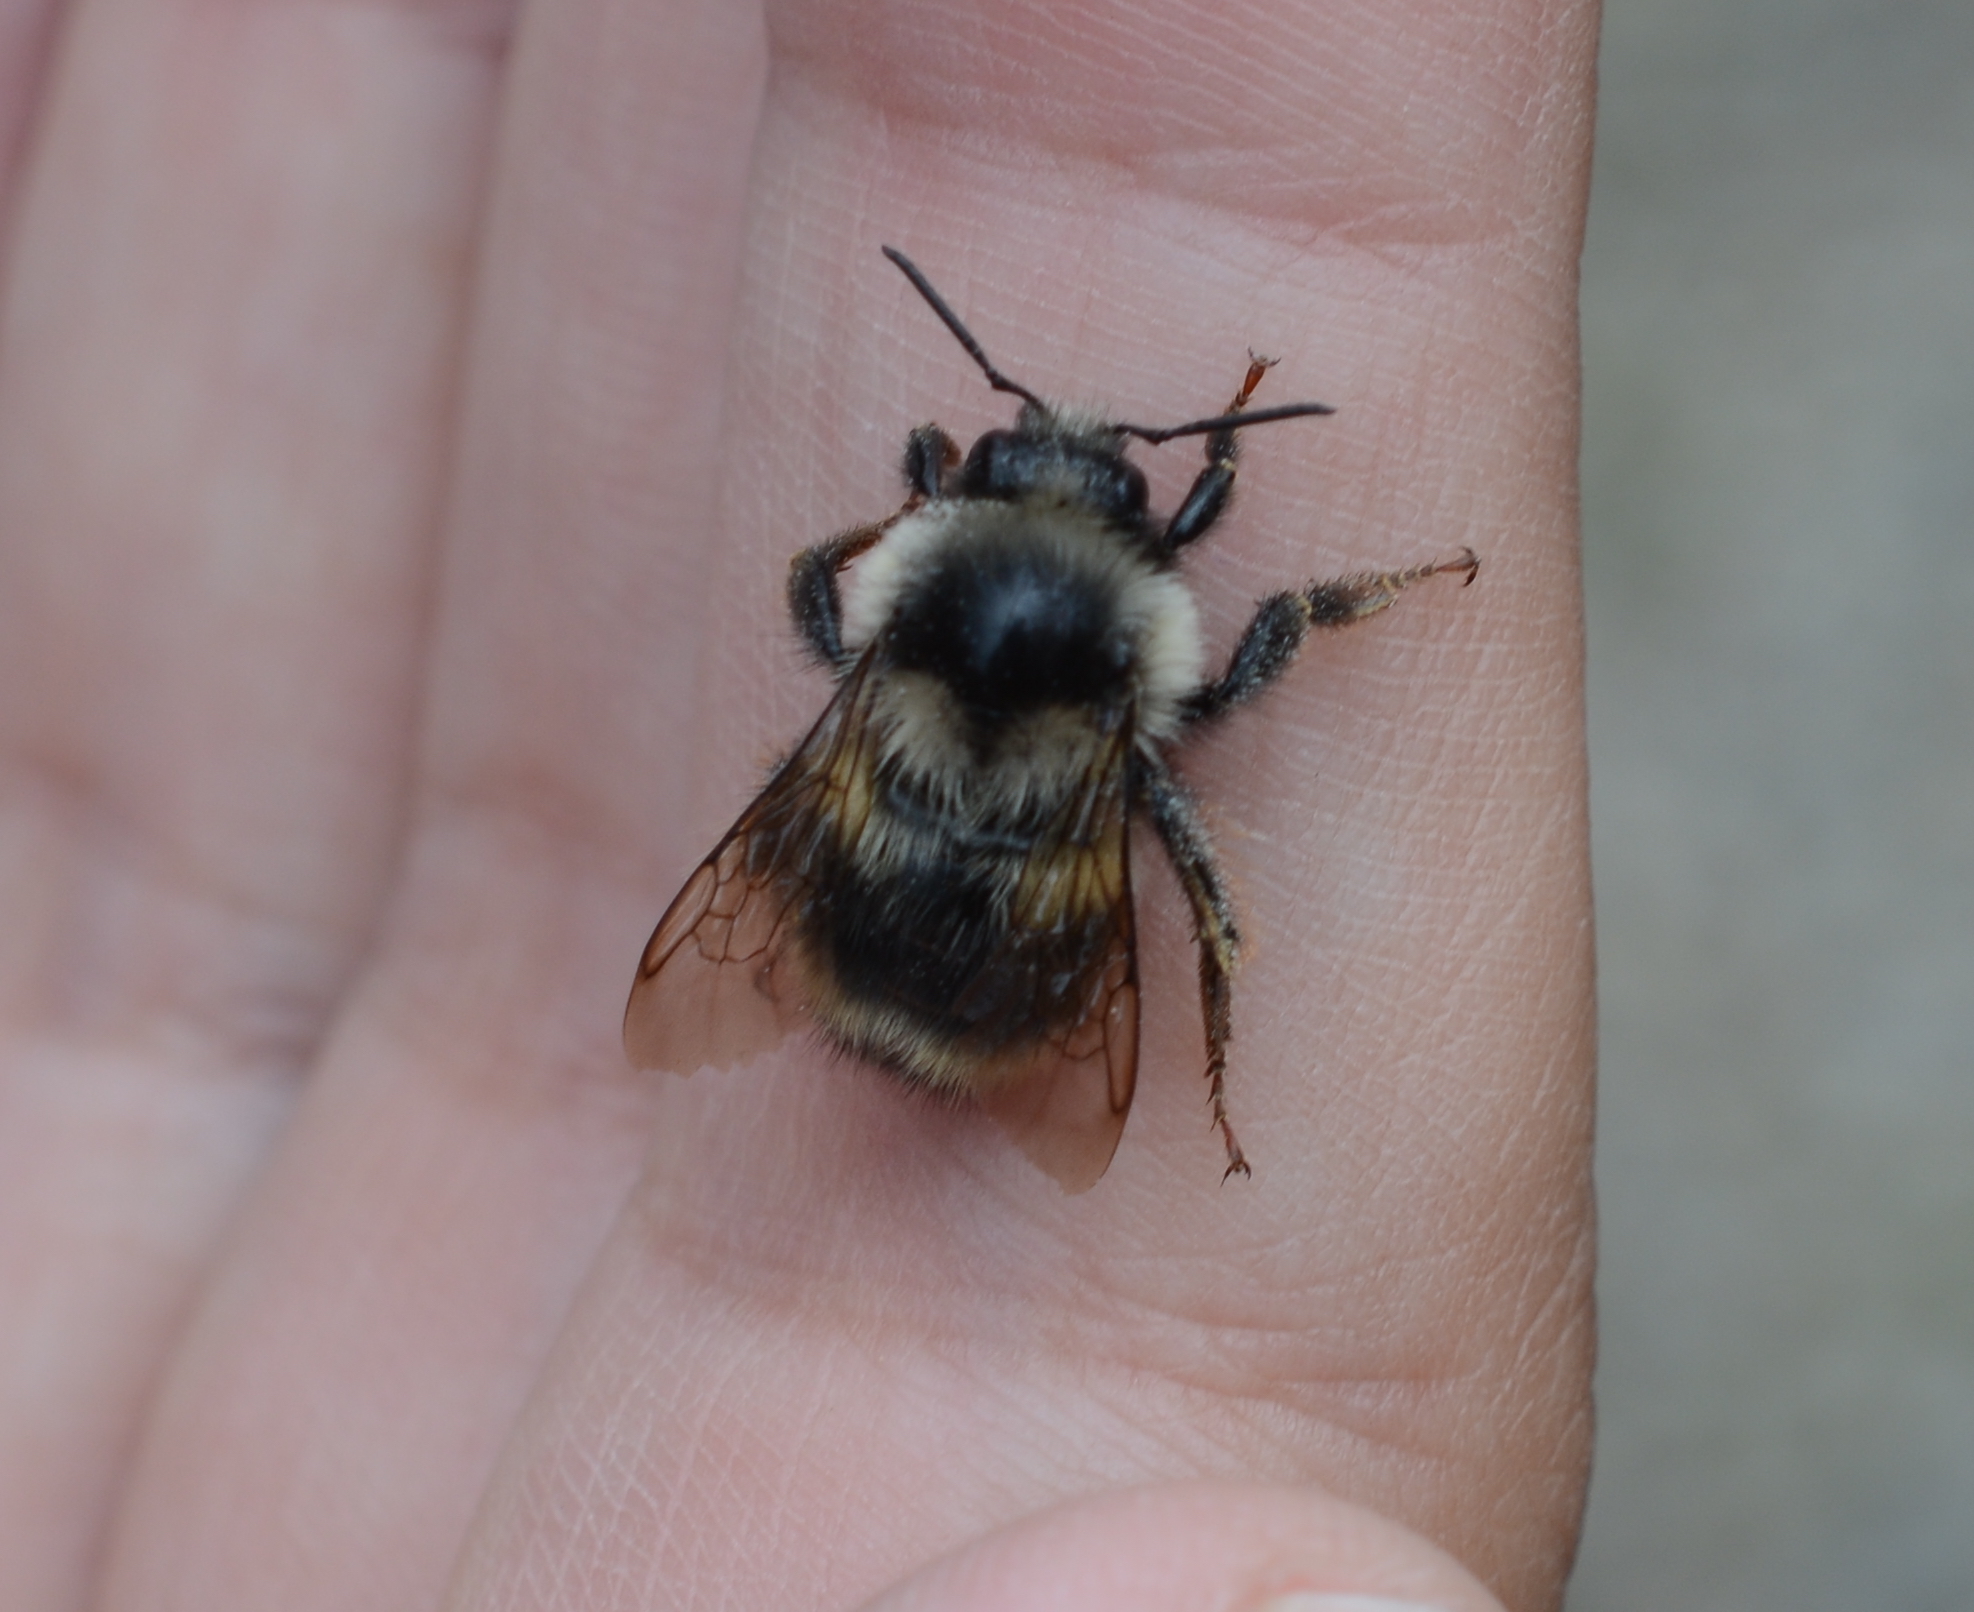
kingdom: Animalia
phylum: Arthropoda
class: Insecta
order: Hymenoptera
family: Apidae
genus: Bombus
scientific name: Bombus vancouverensis
